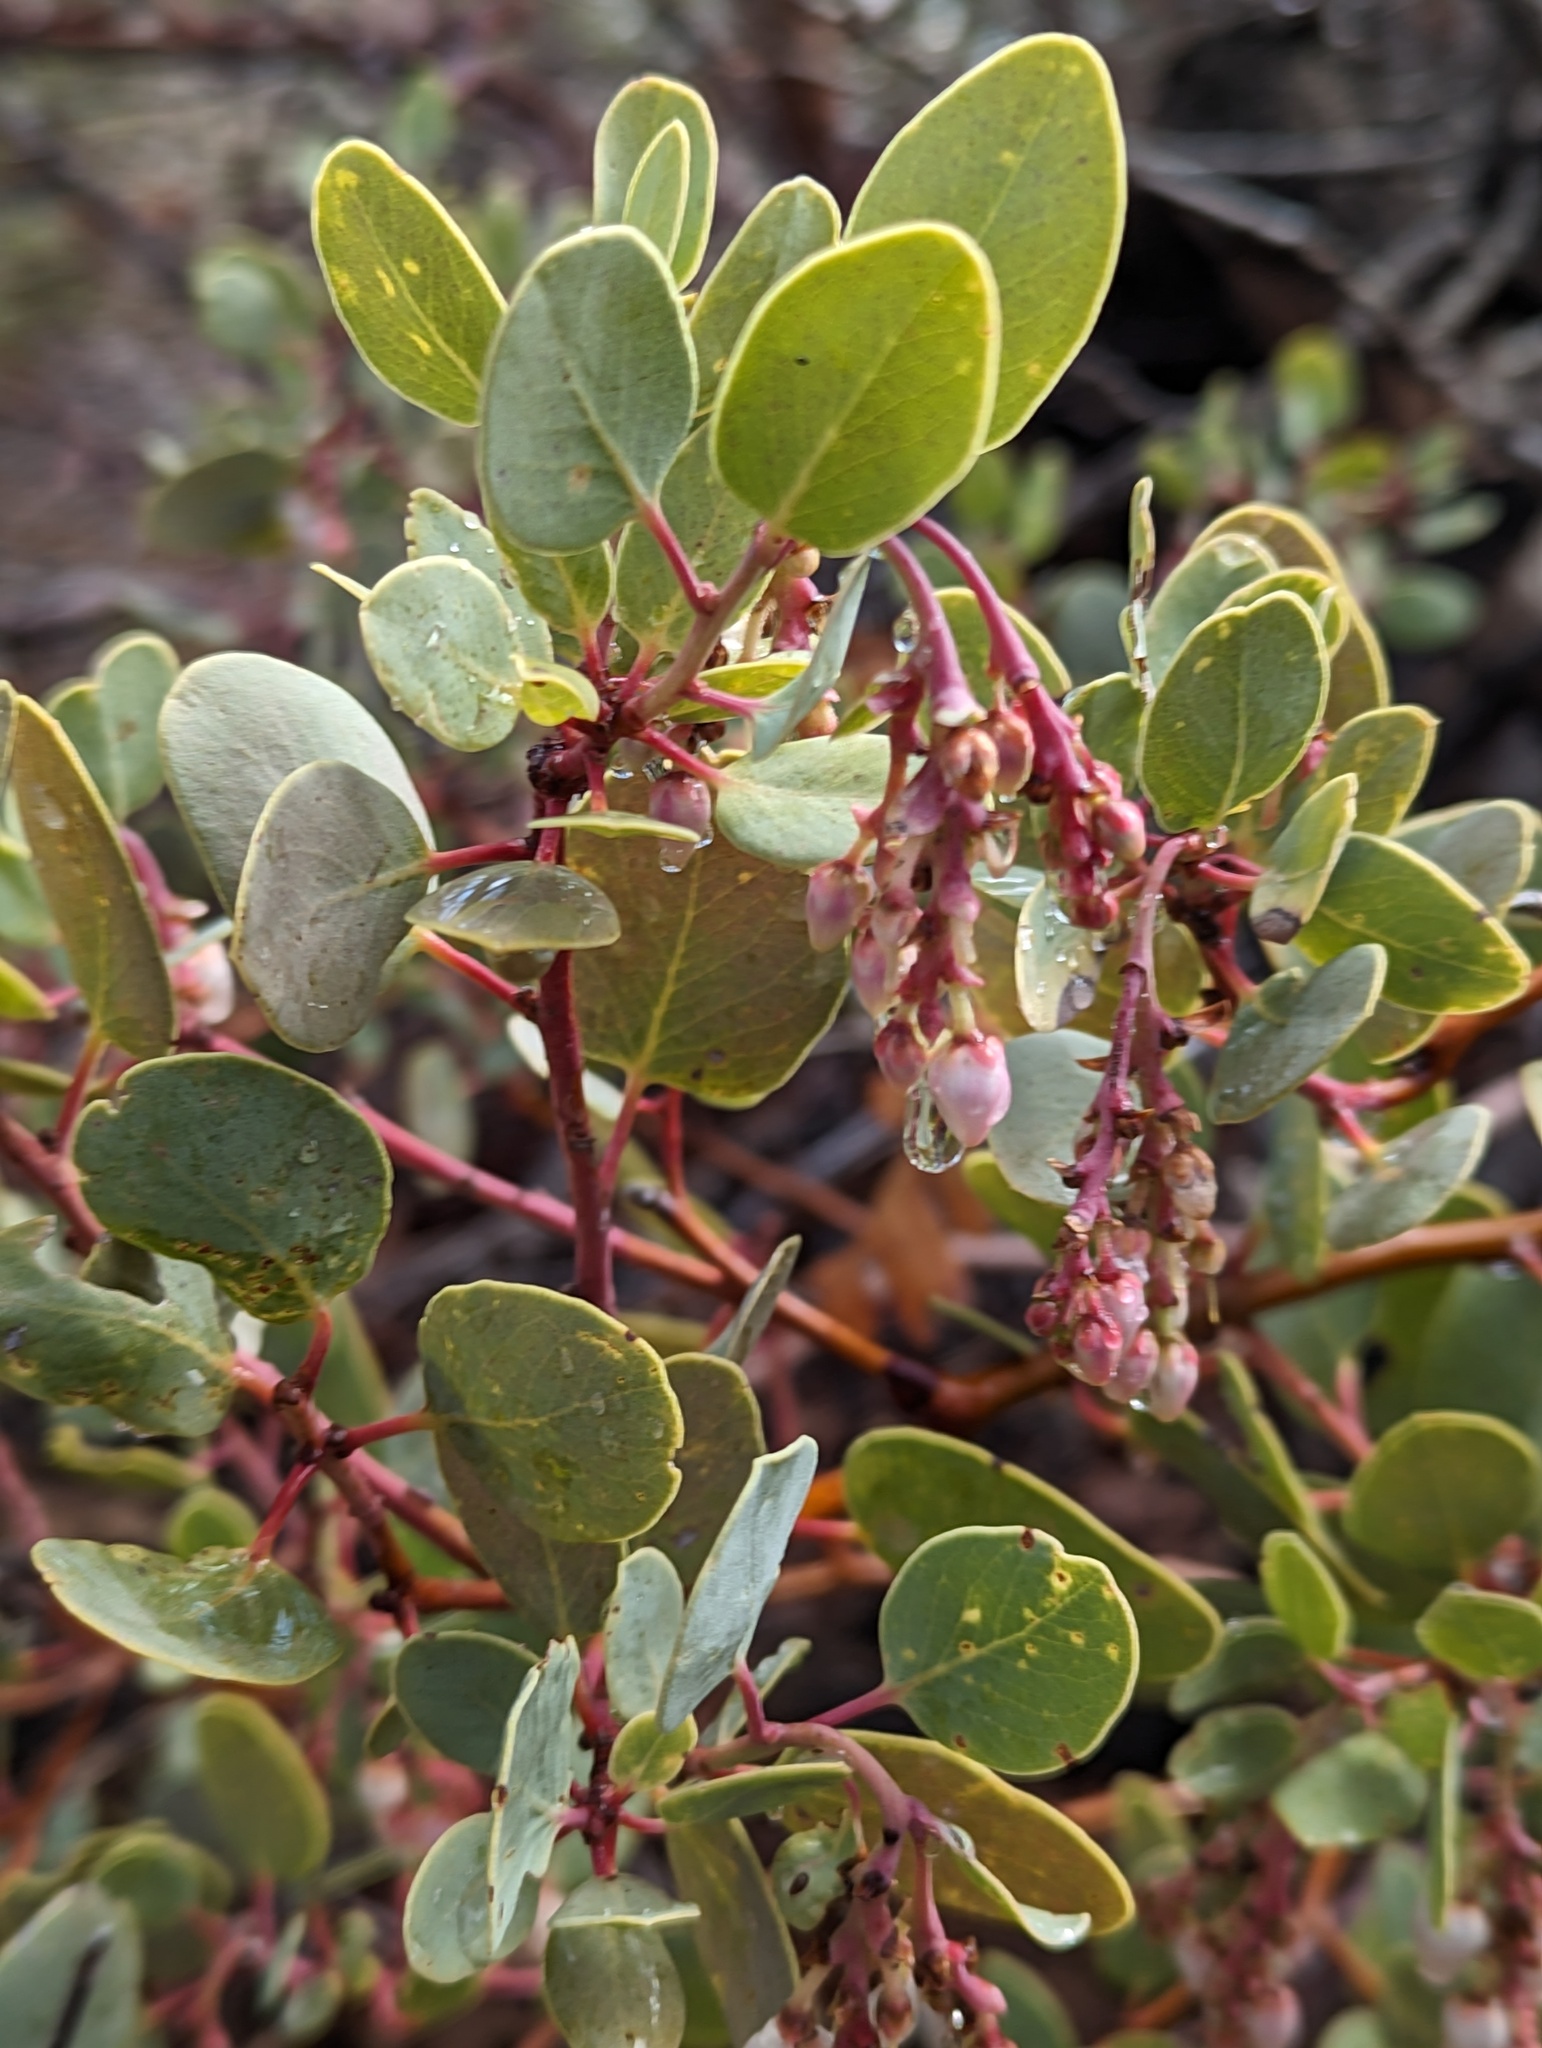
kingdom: Plantae
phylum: Tracheophyta
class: Magnoliopsida
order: Ericales
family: Ericaceae
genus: Arctostaphylos
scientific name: Arctostaphylos glauca
